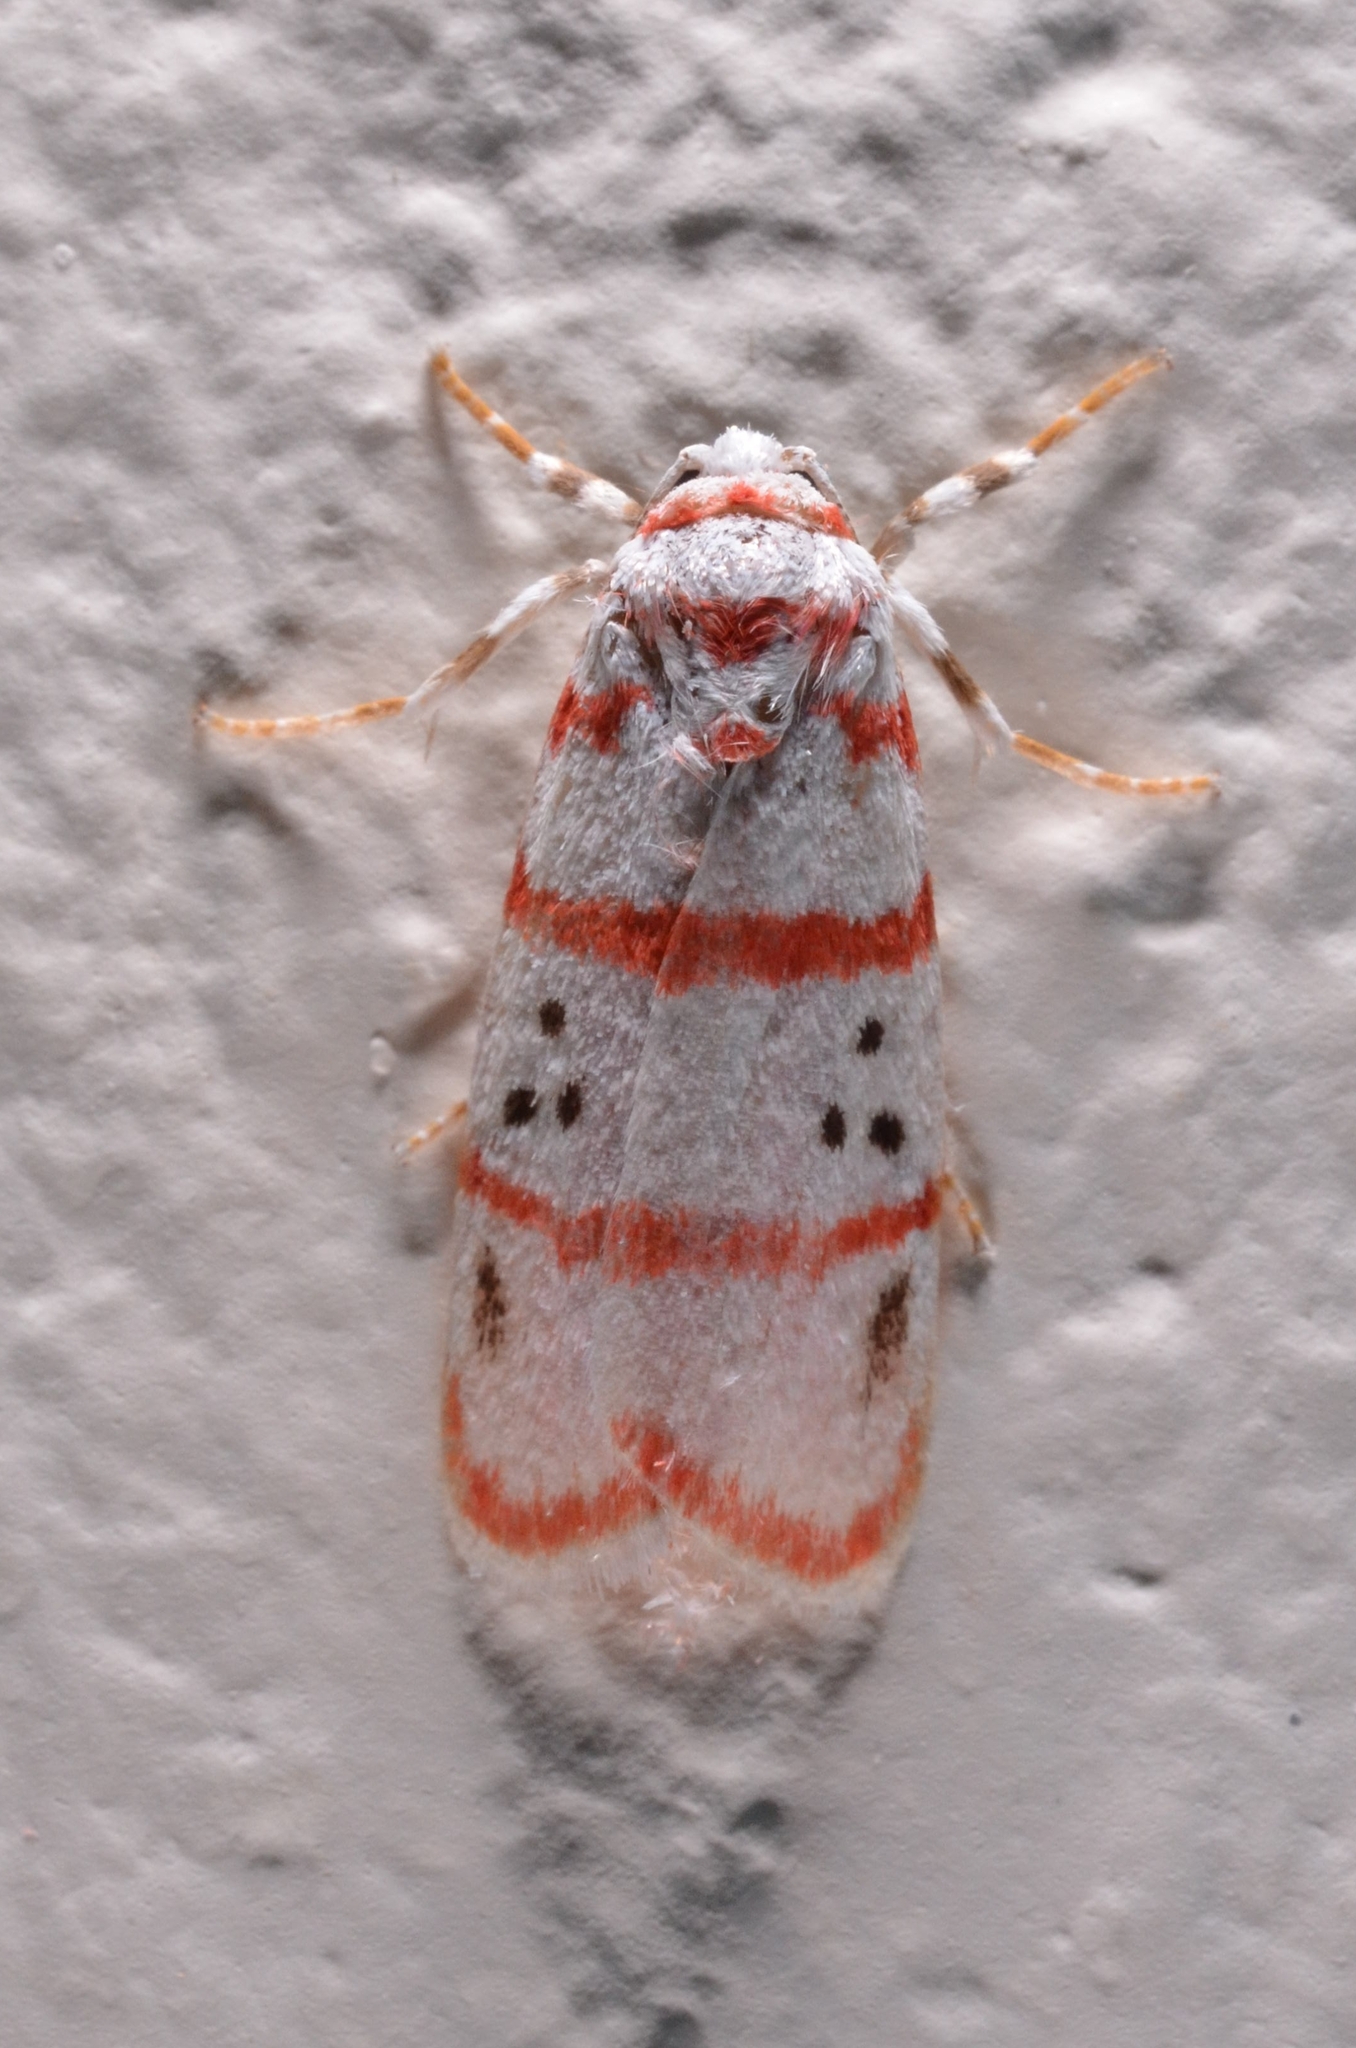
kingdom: Animalia
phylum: Arthropoda
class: Insecta
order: Lepidoptera
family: Erebidae
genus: Cyana
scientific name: Cyana dudgeoni
